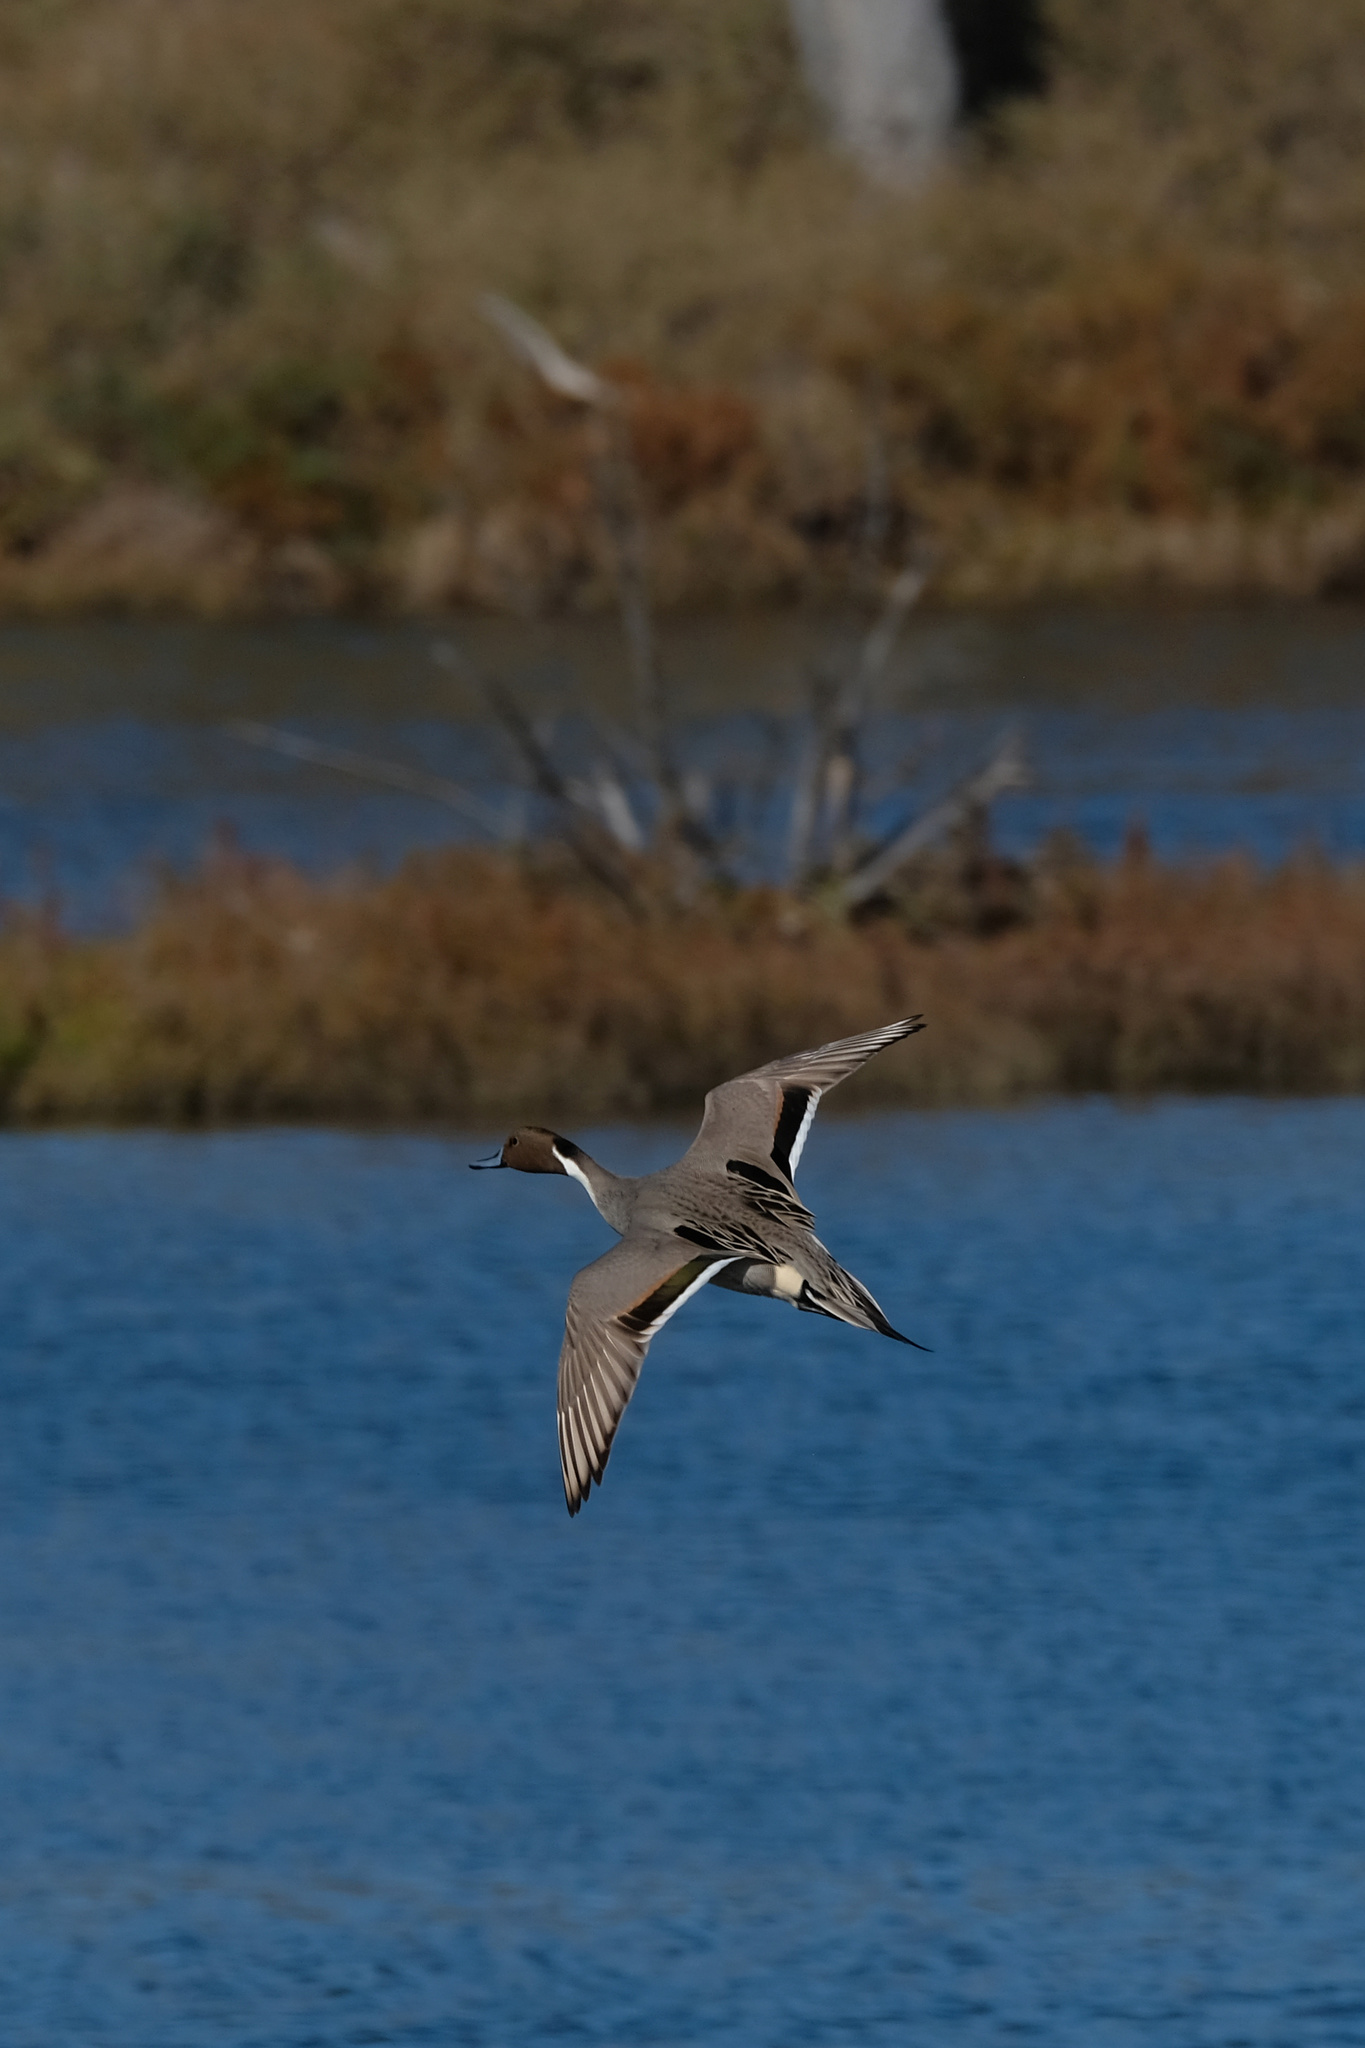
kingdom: Animalia
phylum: Chordata
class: Aves
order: Anseriformes
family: Anatidae
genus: Anas
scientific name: Anas acuta
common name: Northern pintail
